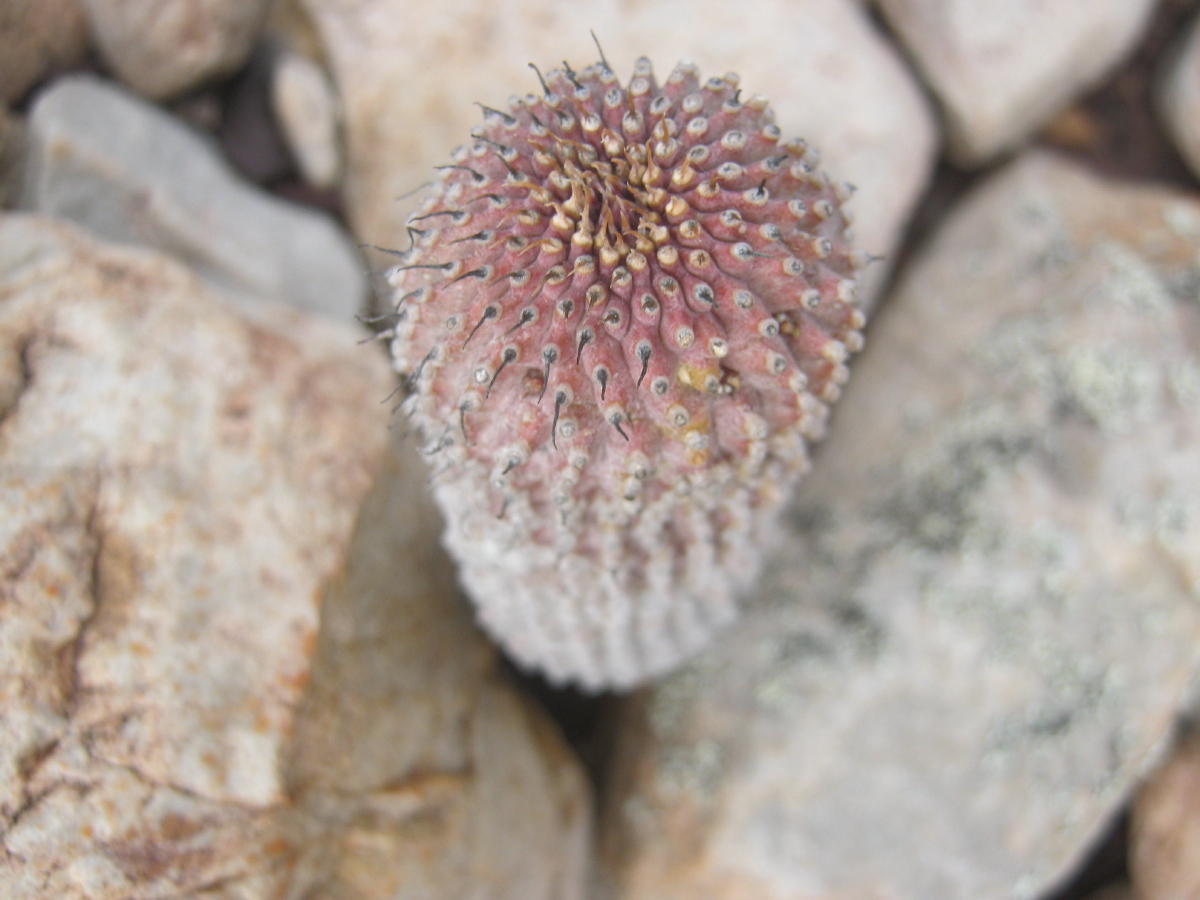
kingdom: Plantae
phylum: Tracheophyta
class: Magnoliopsida
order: Gentianales
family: Apocynaceae
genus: Ceropegia
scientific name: Ceropegia coleorum
